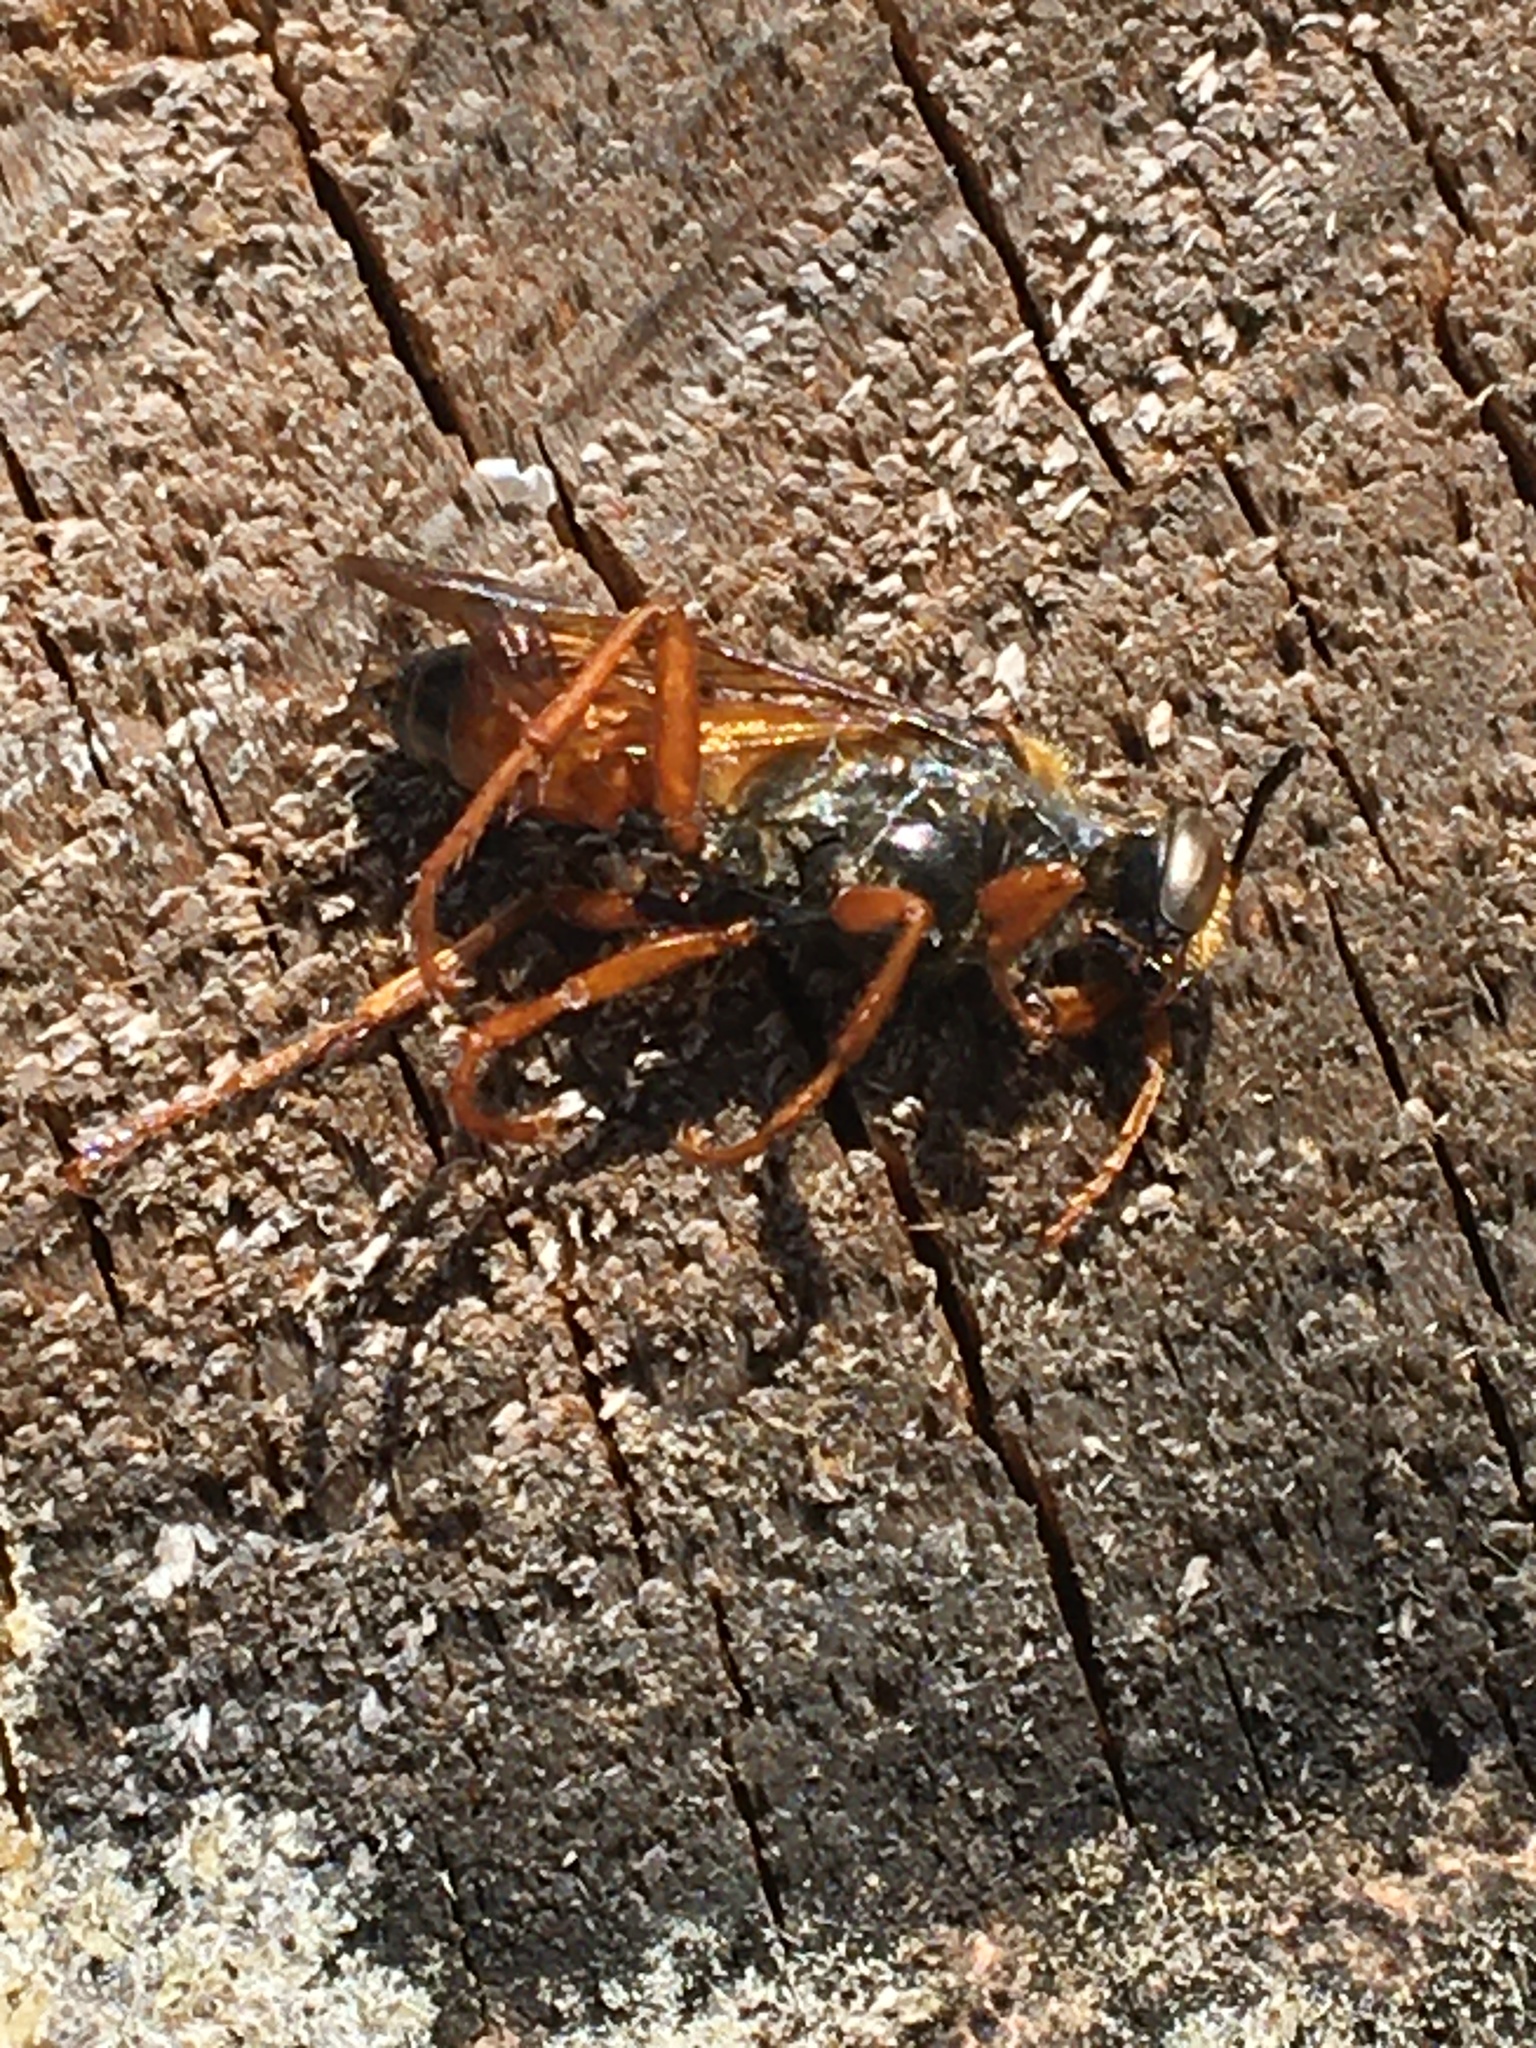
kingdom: Animalia
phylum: Arthropoda
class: Insecta
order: Hymenoptera
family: Sphecidae
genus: Sphex
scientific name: Sphex ichneumoneus
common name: Great golden digger wasp
